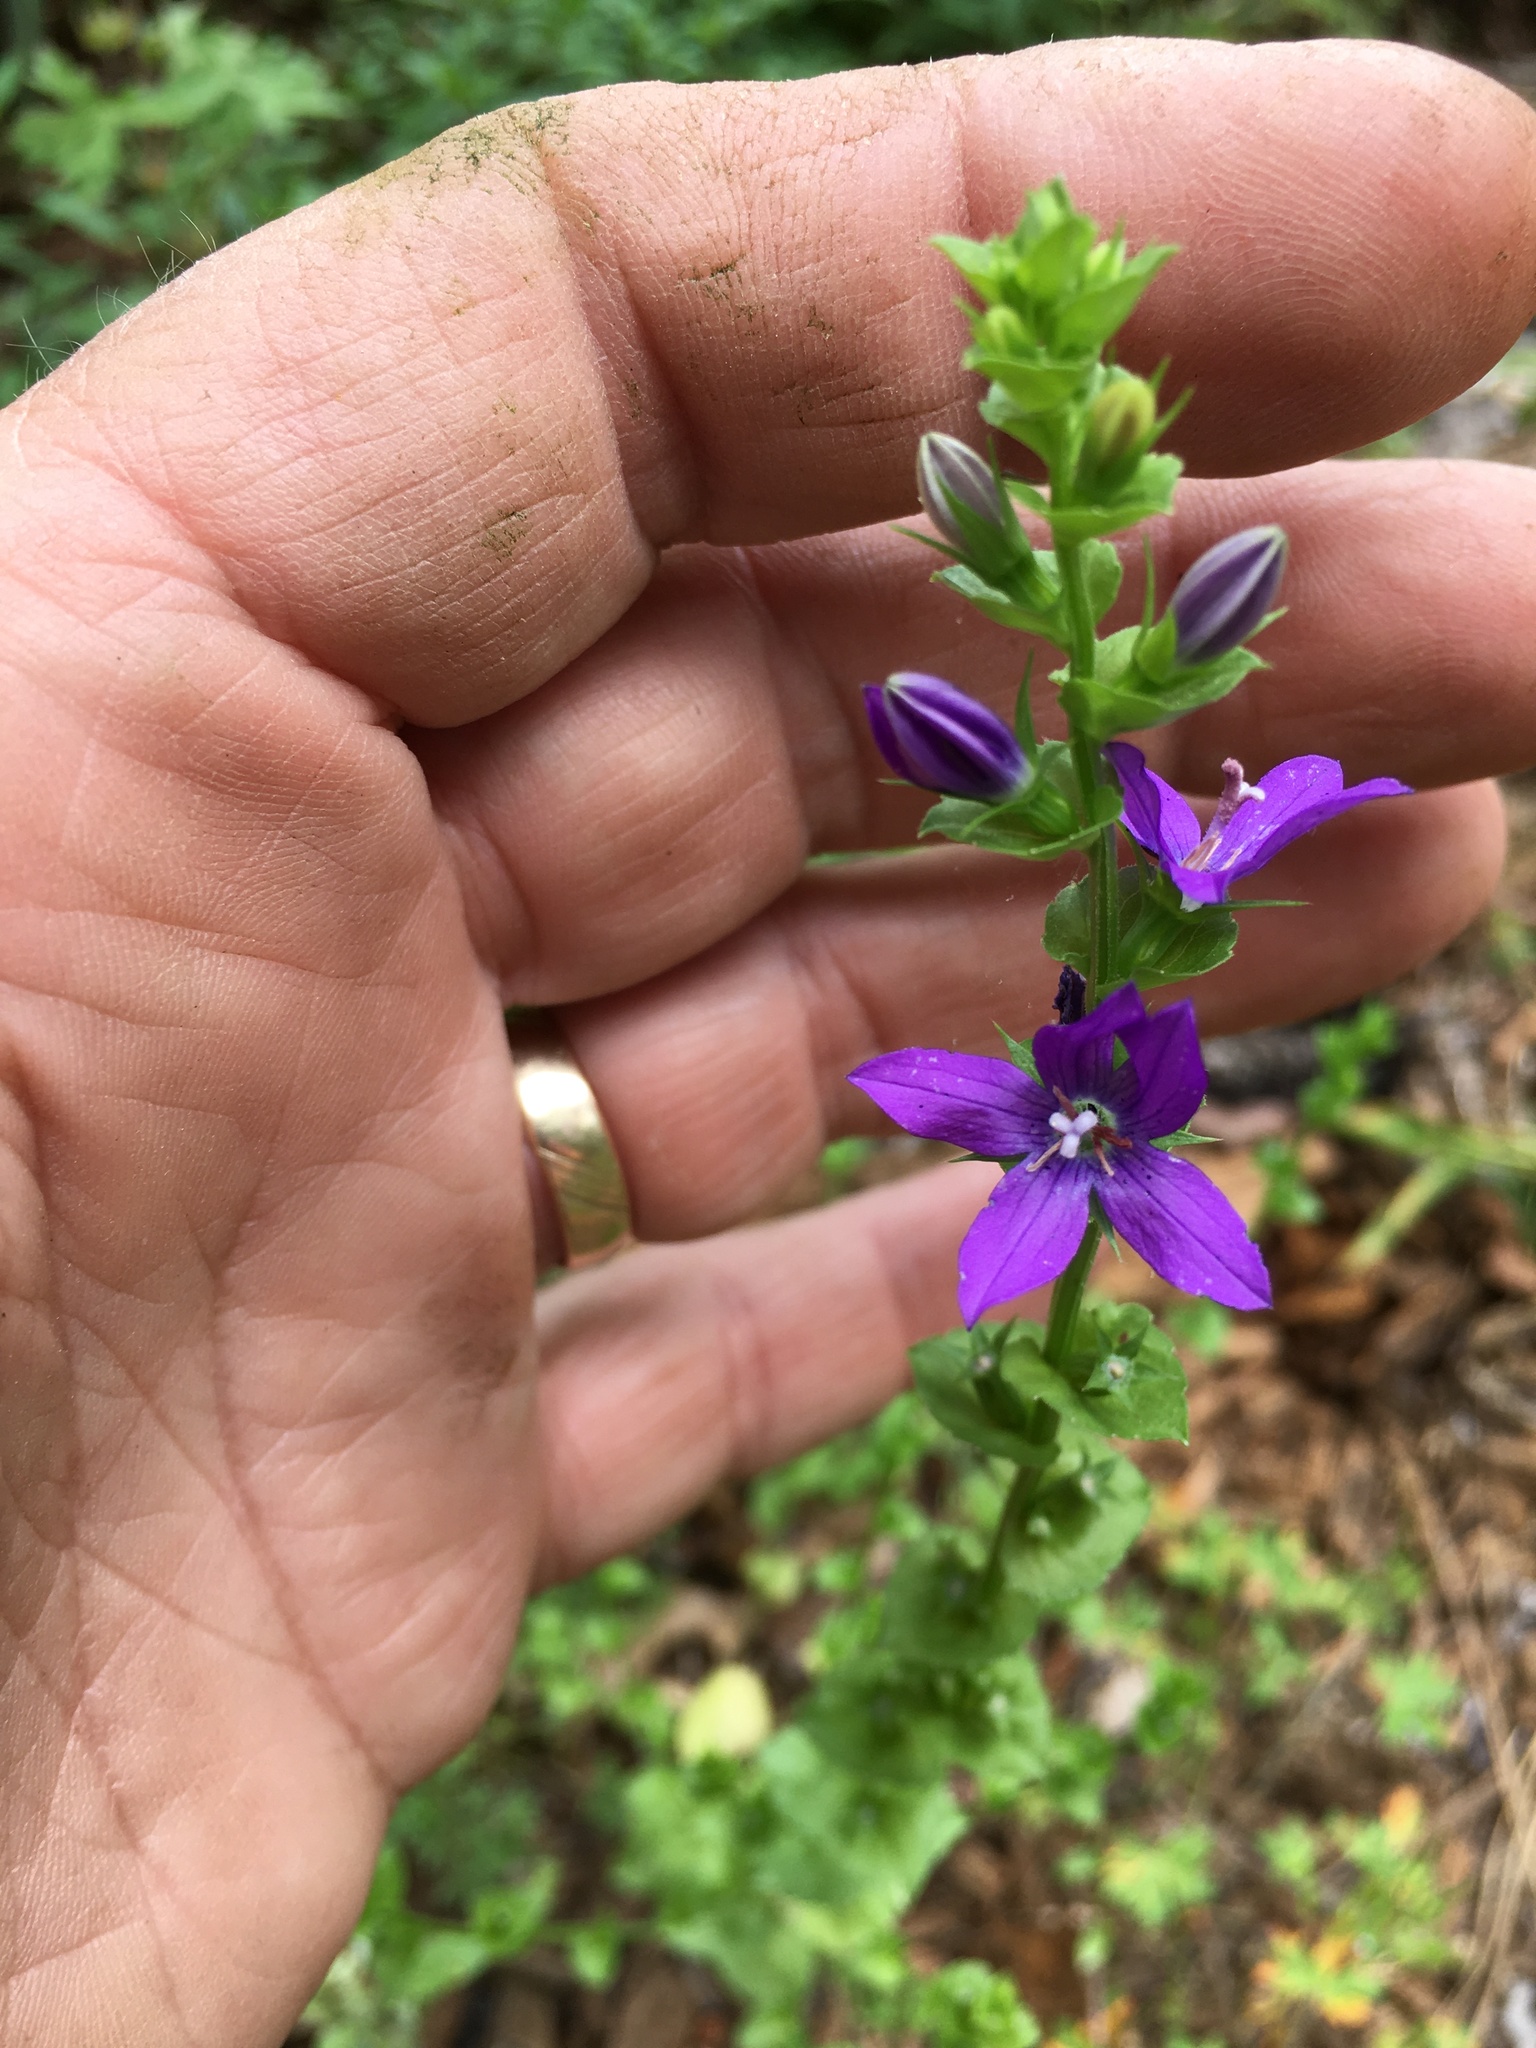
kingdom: Plantae
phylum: Tracheophyta
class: Magnoliopsida
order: Asterales
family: Campanulaceae
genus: Triodanis
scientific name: Triodanis perfoliata
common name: Clasping venus' looking-glass
